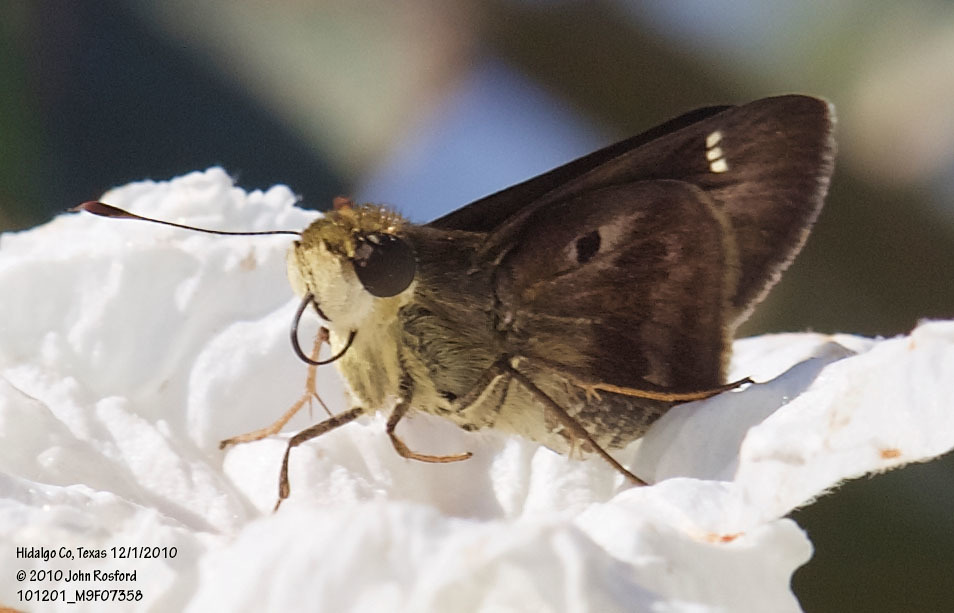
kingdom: Animalia
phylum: Arthropoda
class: Insecta
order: Lepidoptera
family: Hesperiidae
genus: Nyctelius
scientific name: Nyctelius nyctelius
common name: Violet-banded skipper
